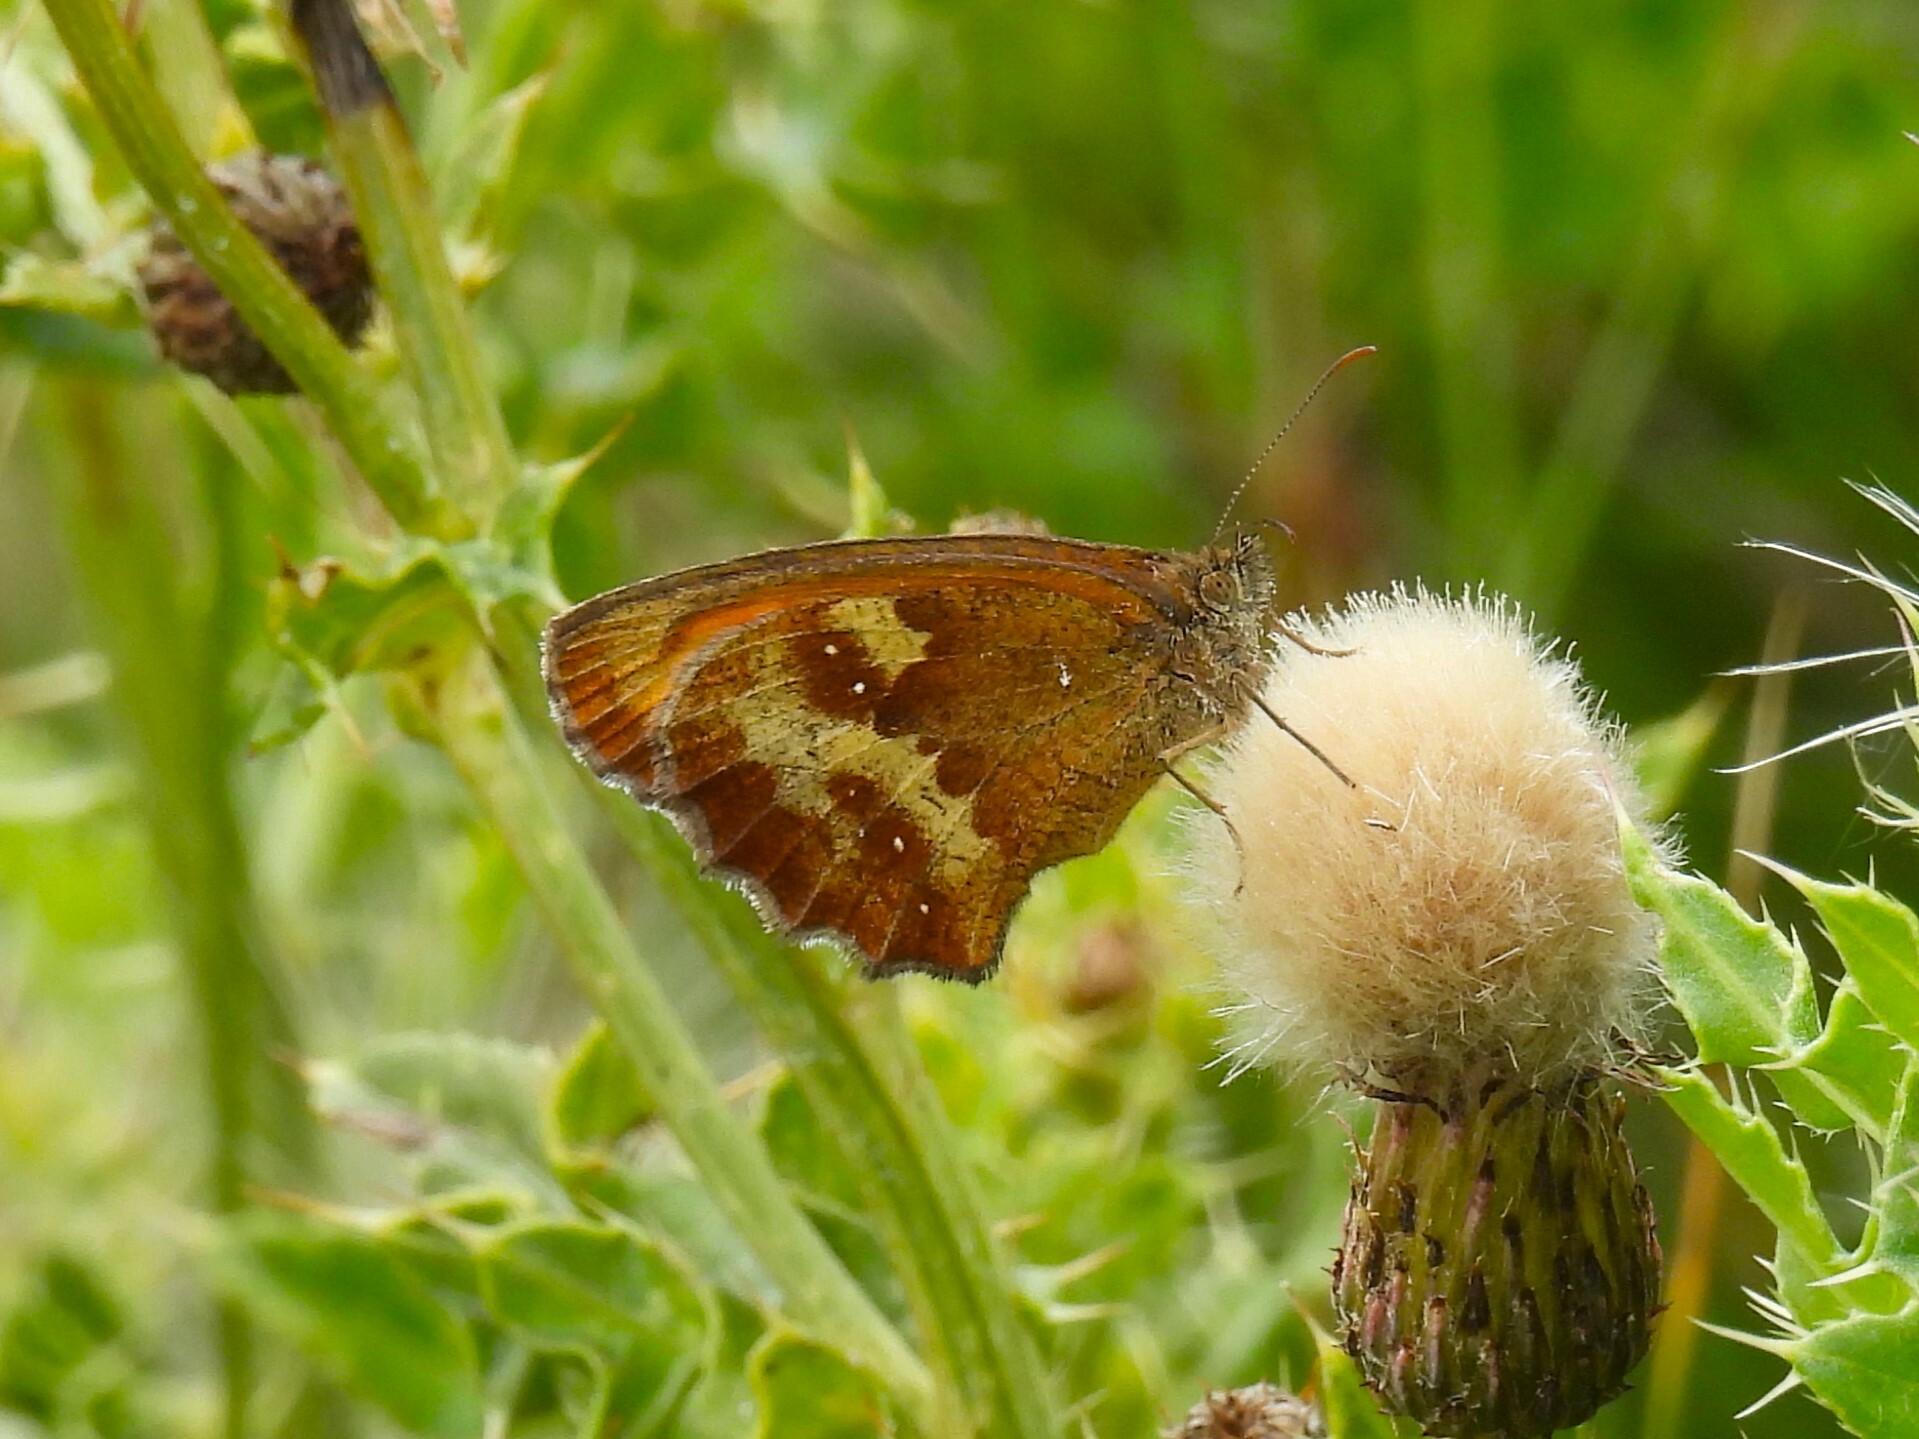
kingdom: Animalia
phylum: Arthropoda
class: Insecta
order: Lepidoptera
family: Nymphalidae
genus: Pyronia
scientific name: Pyronia tithonus
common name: Gatekeeper
